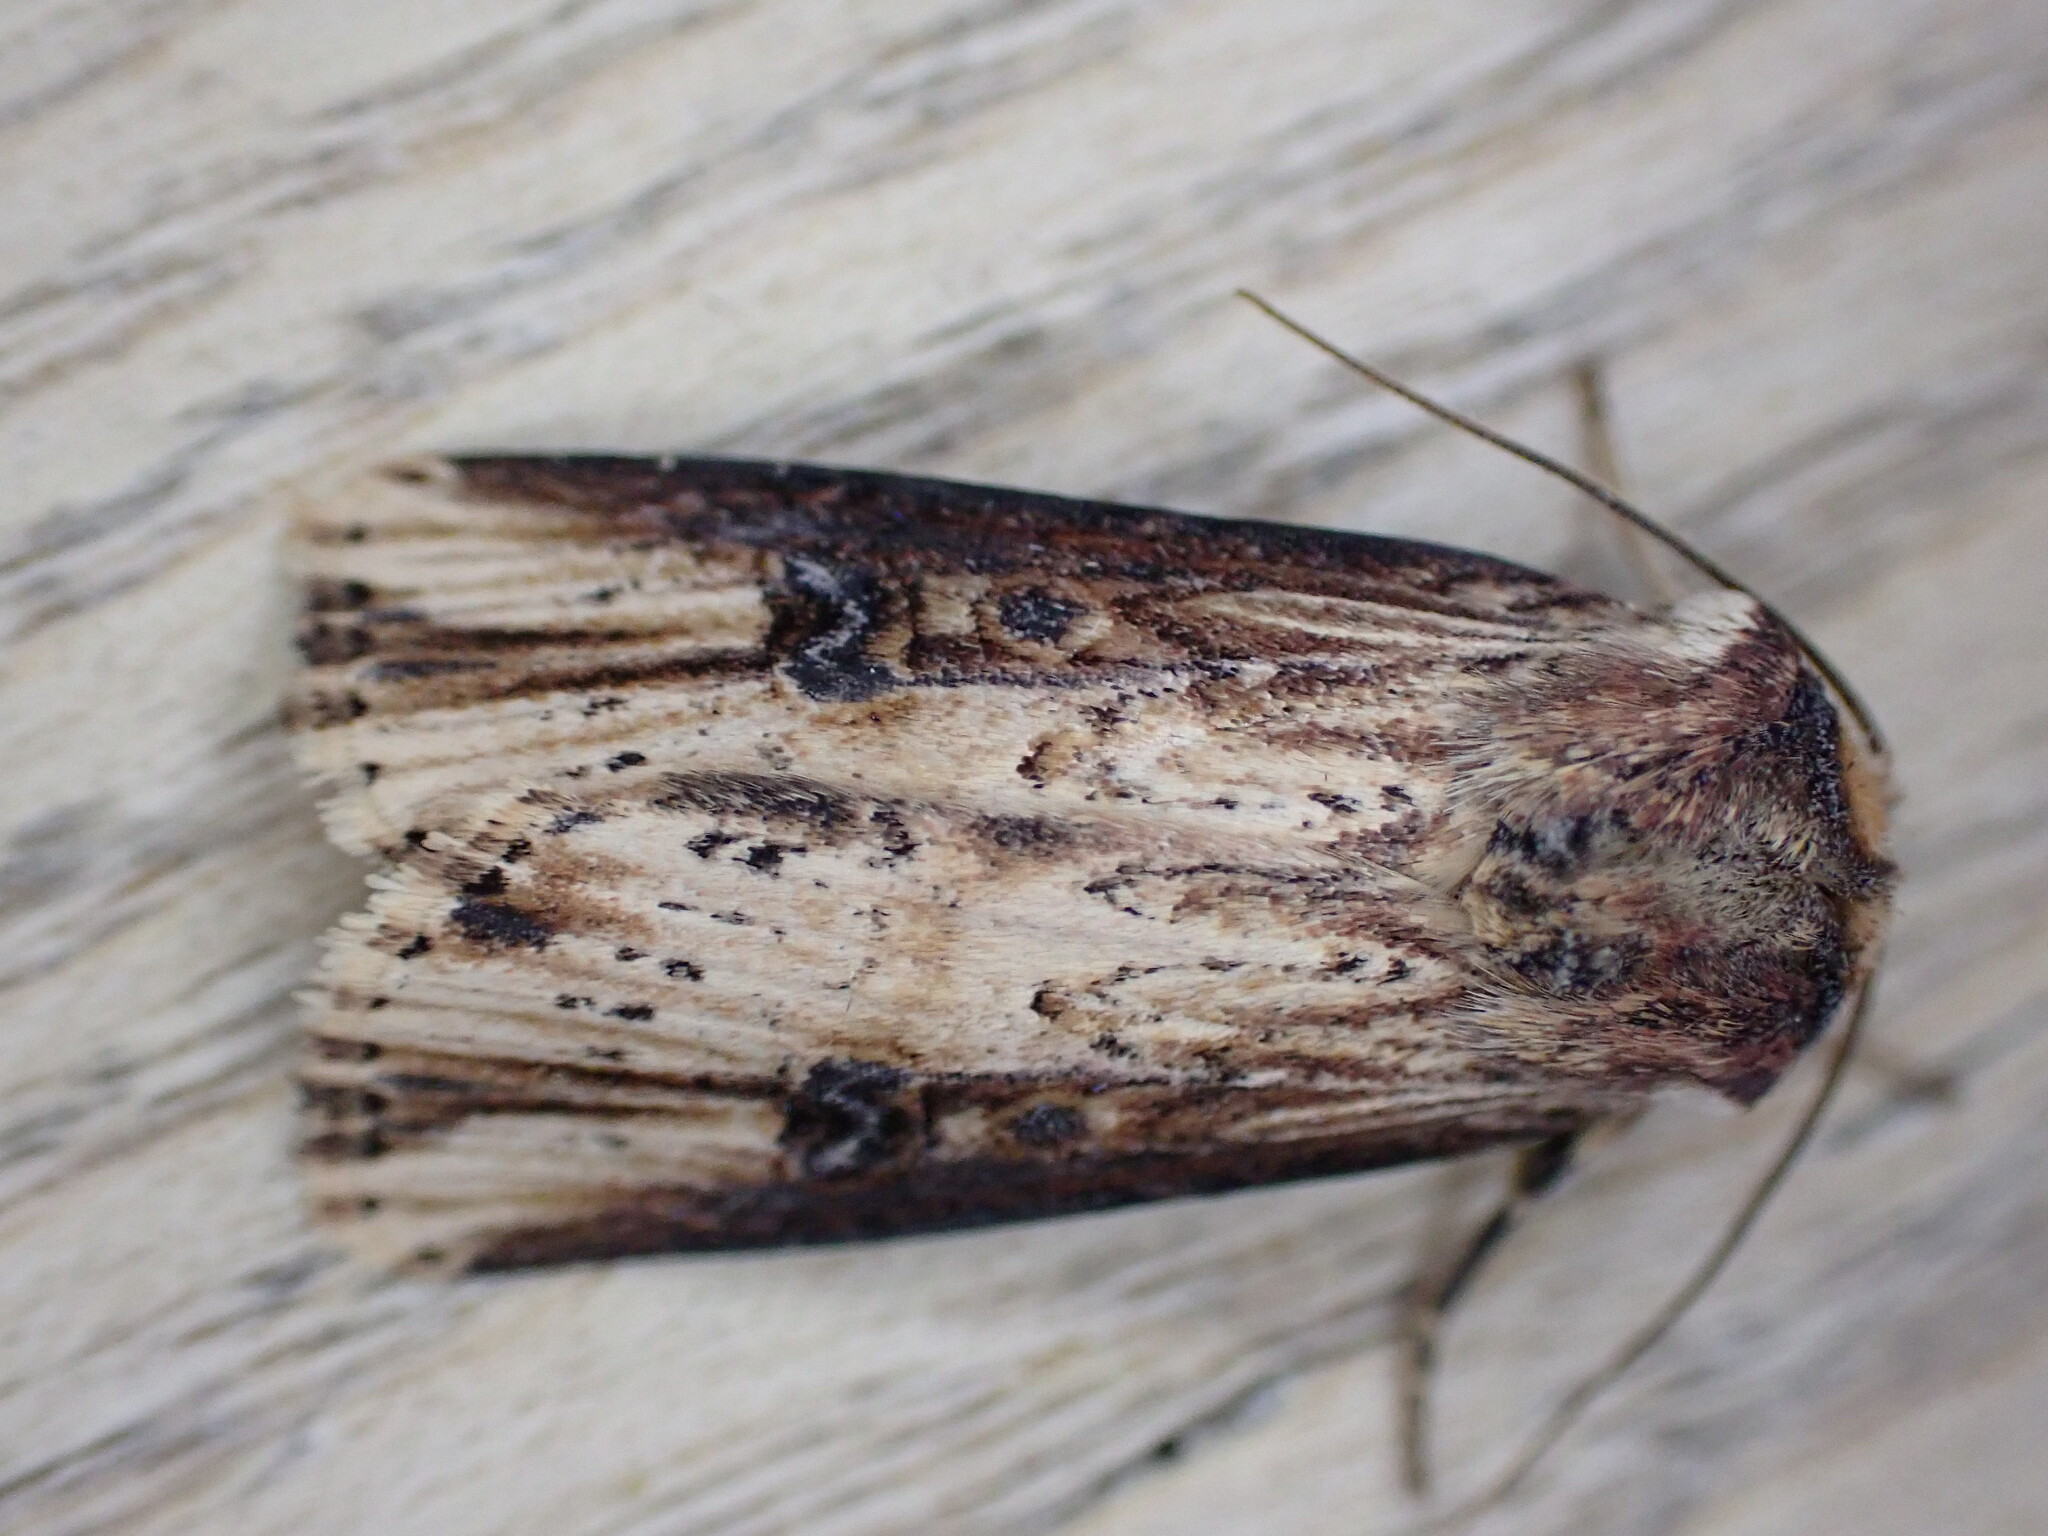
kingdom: Animalia
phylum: Arthropoda
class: Insecta
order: Lepidoptera
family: Noctuidae
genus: Axylia
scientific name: Axylia putris
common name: Flame
